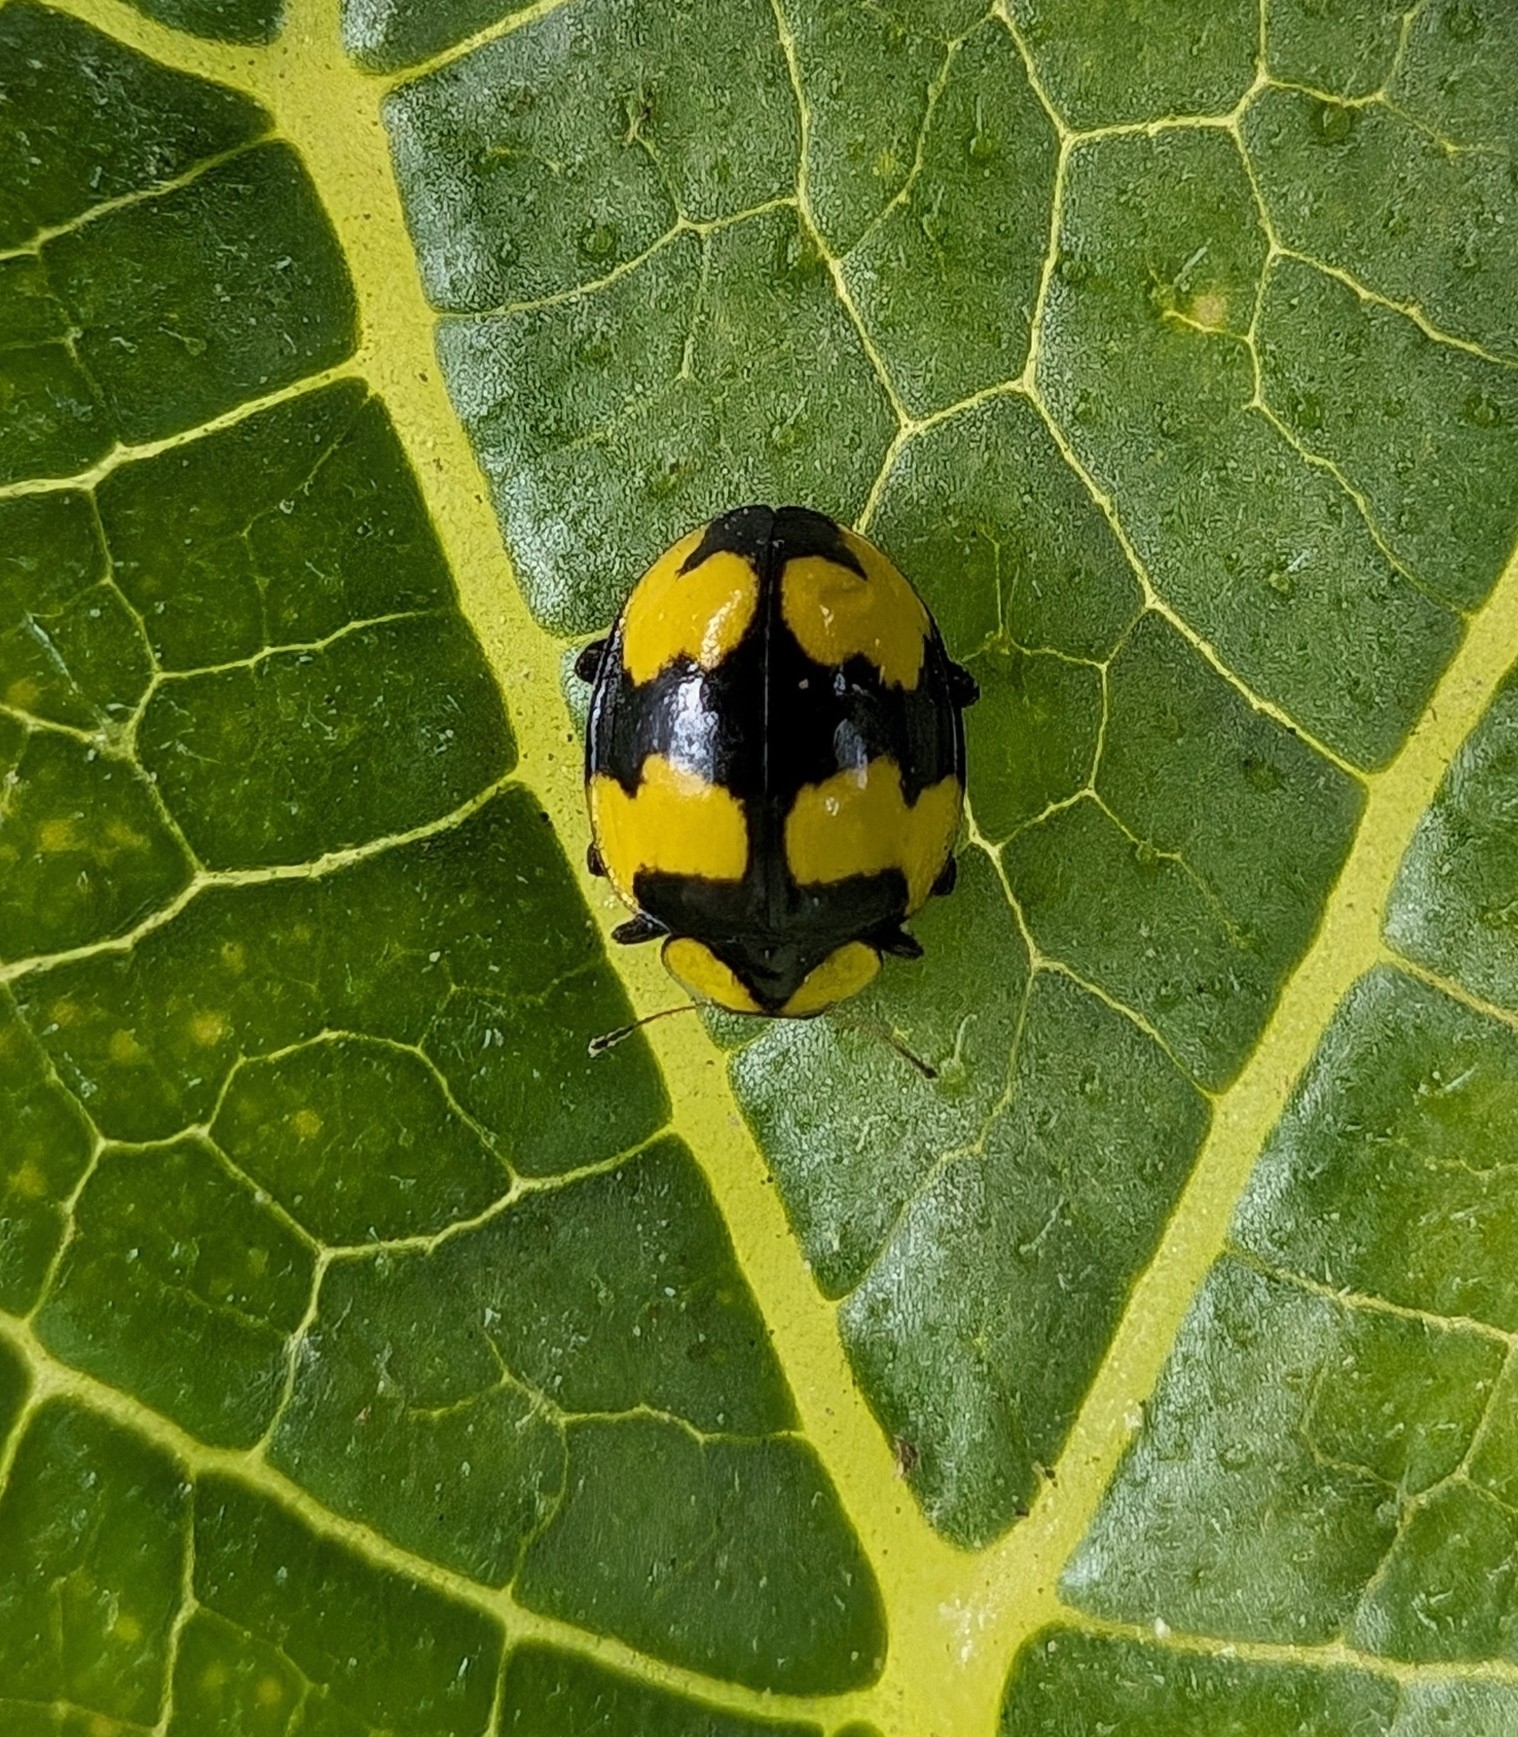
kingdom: Animalia
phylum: Arthropoda
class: Insecta
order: Coleoptera
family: Coccinellidae
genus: Illeis
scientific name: Illeis galbula
